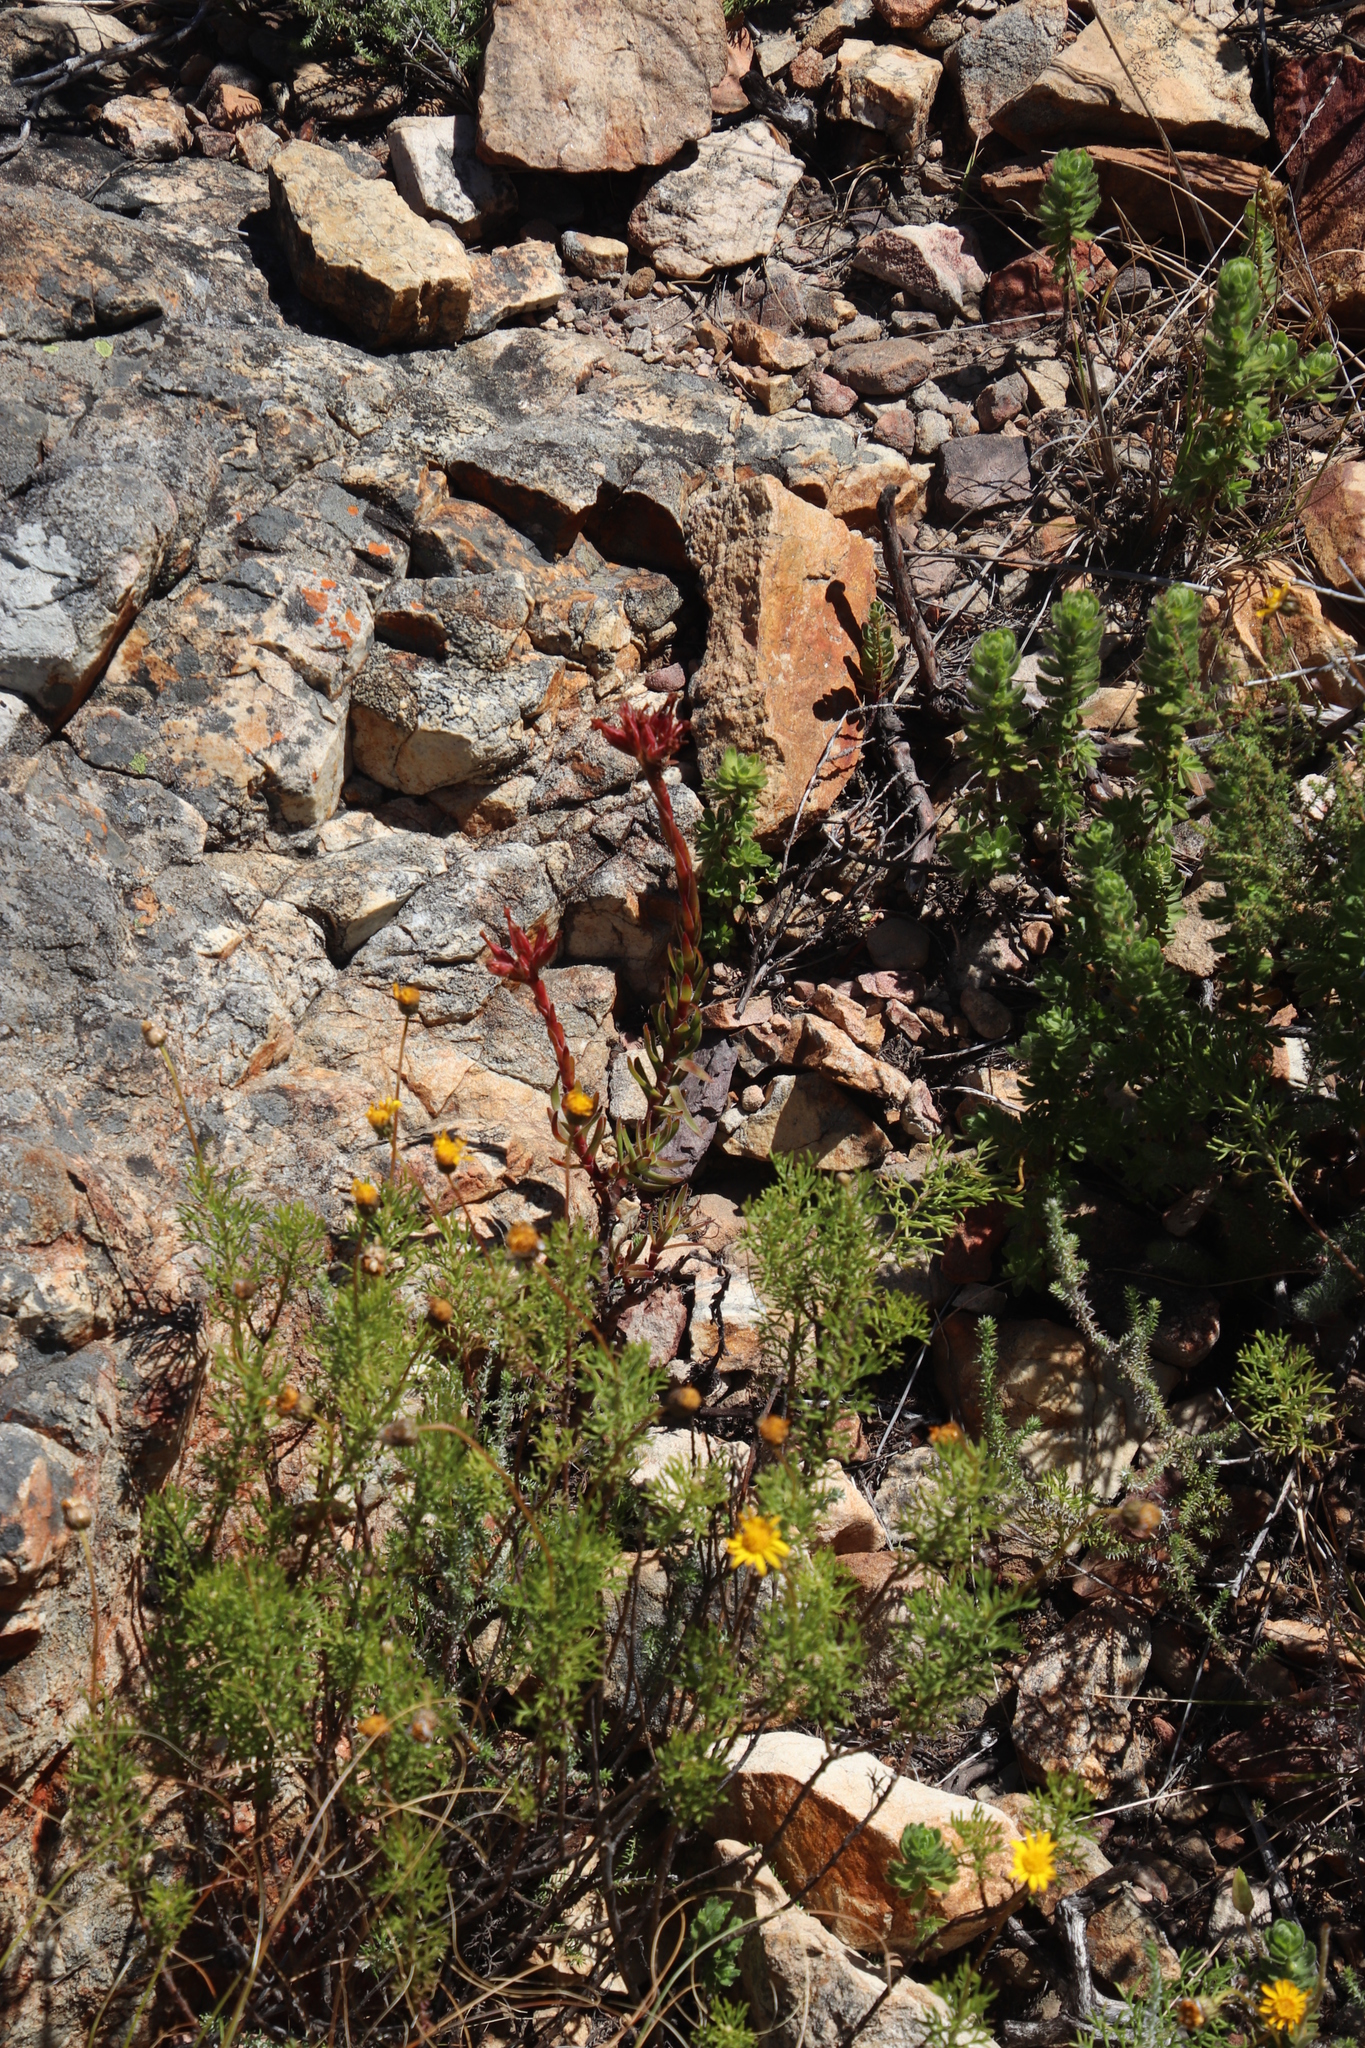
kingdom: Plantae
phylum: Tracheophyta
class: Magnoliopsida
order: Saxifragales
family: Crassulaceae
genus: Crassula
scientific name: Crassula fascicularis
